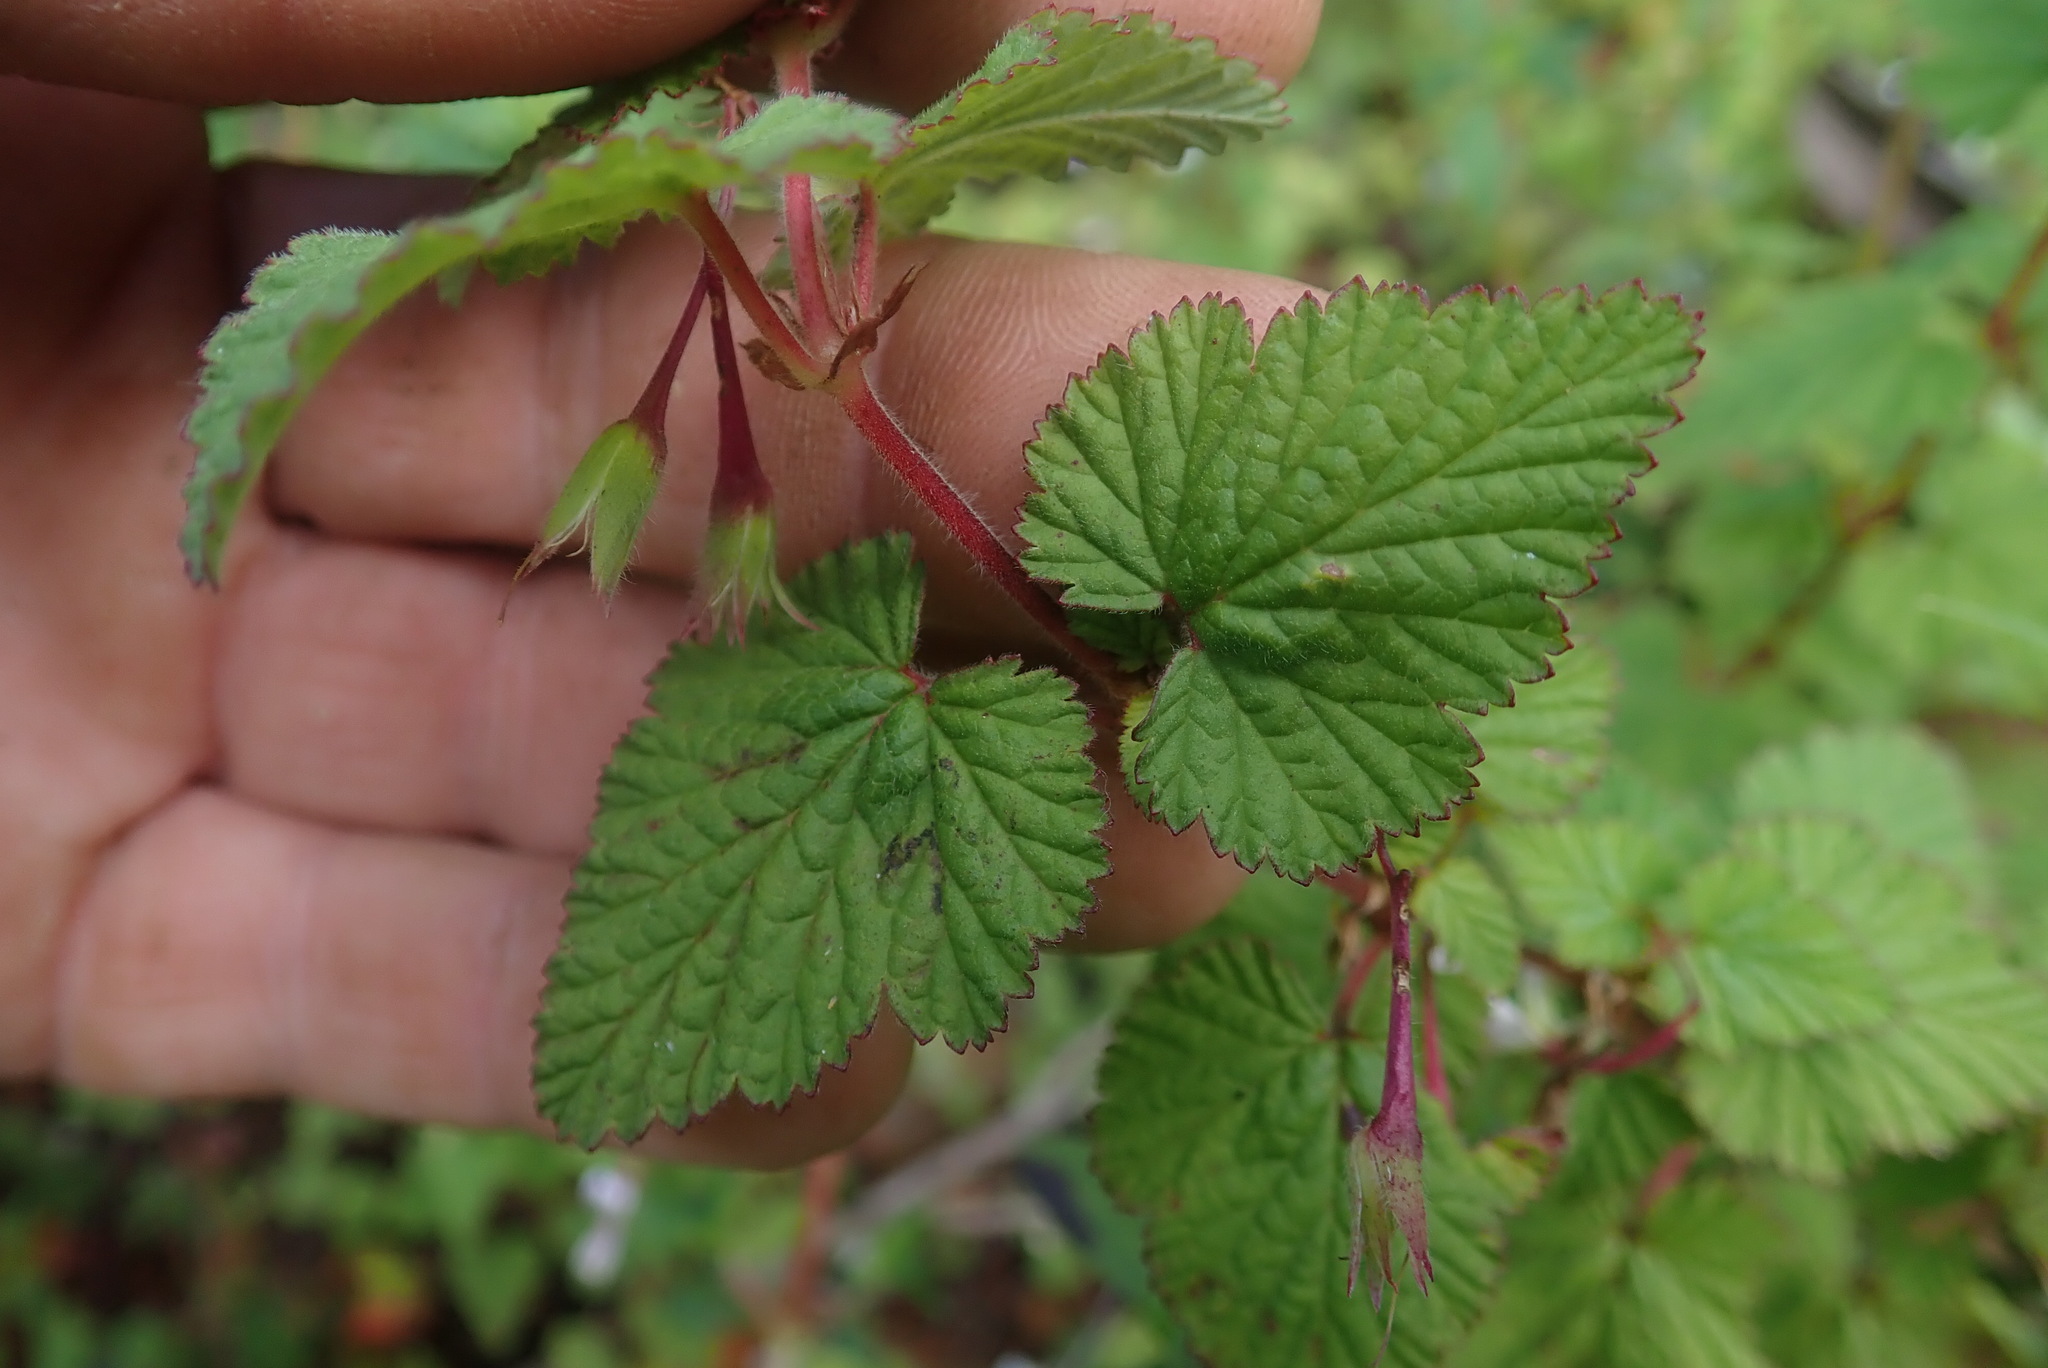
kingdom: Plantae
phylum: Tracheophyta
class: Magnoliopsida
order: Geraniales
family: Geraniaceae
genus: Pelargonium
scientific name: Pelargonium dispar
